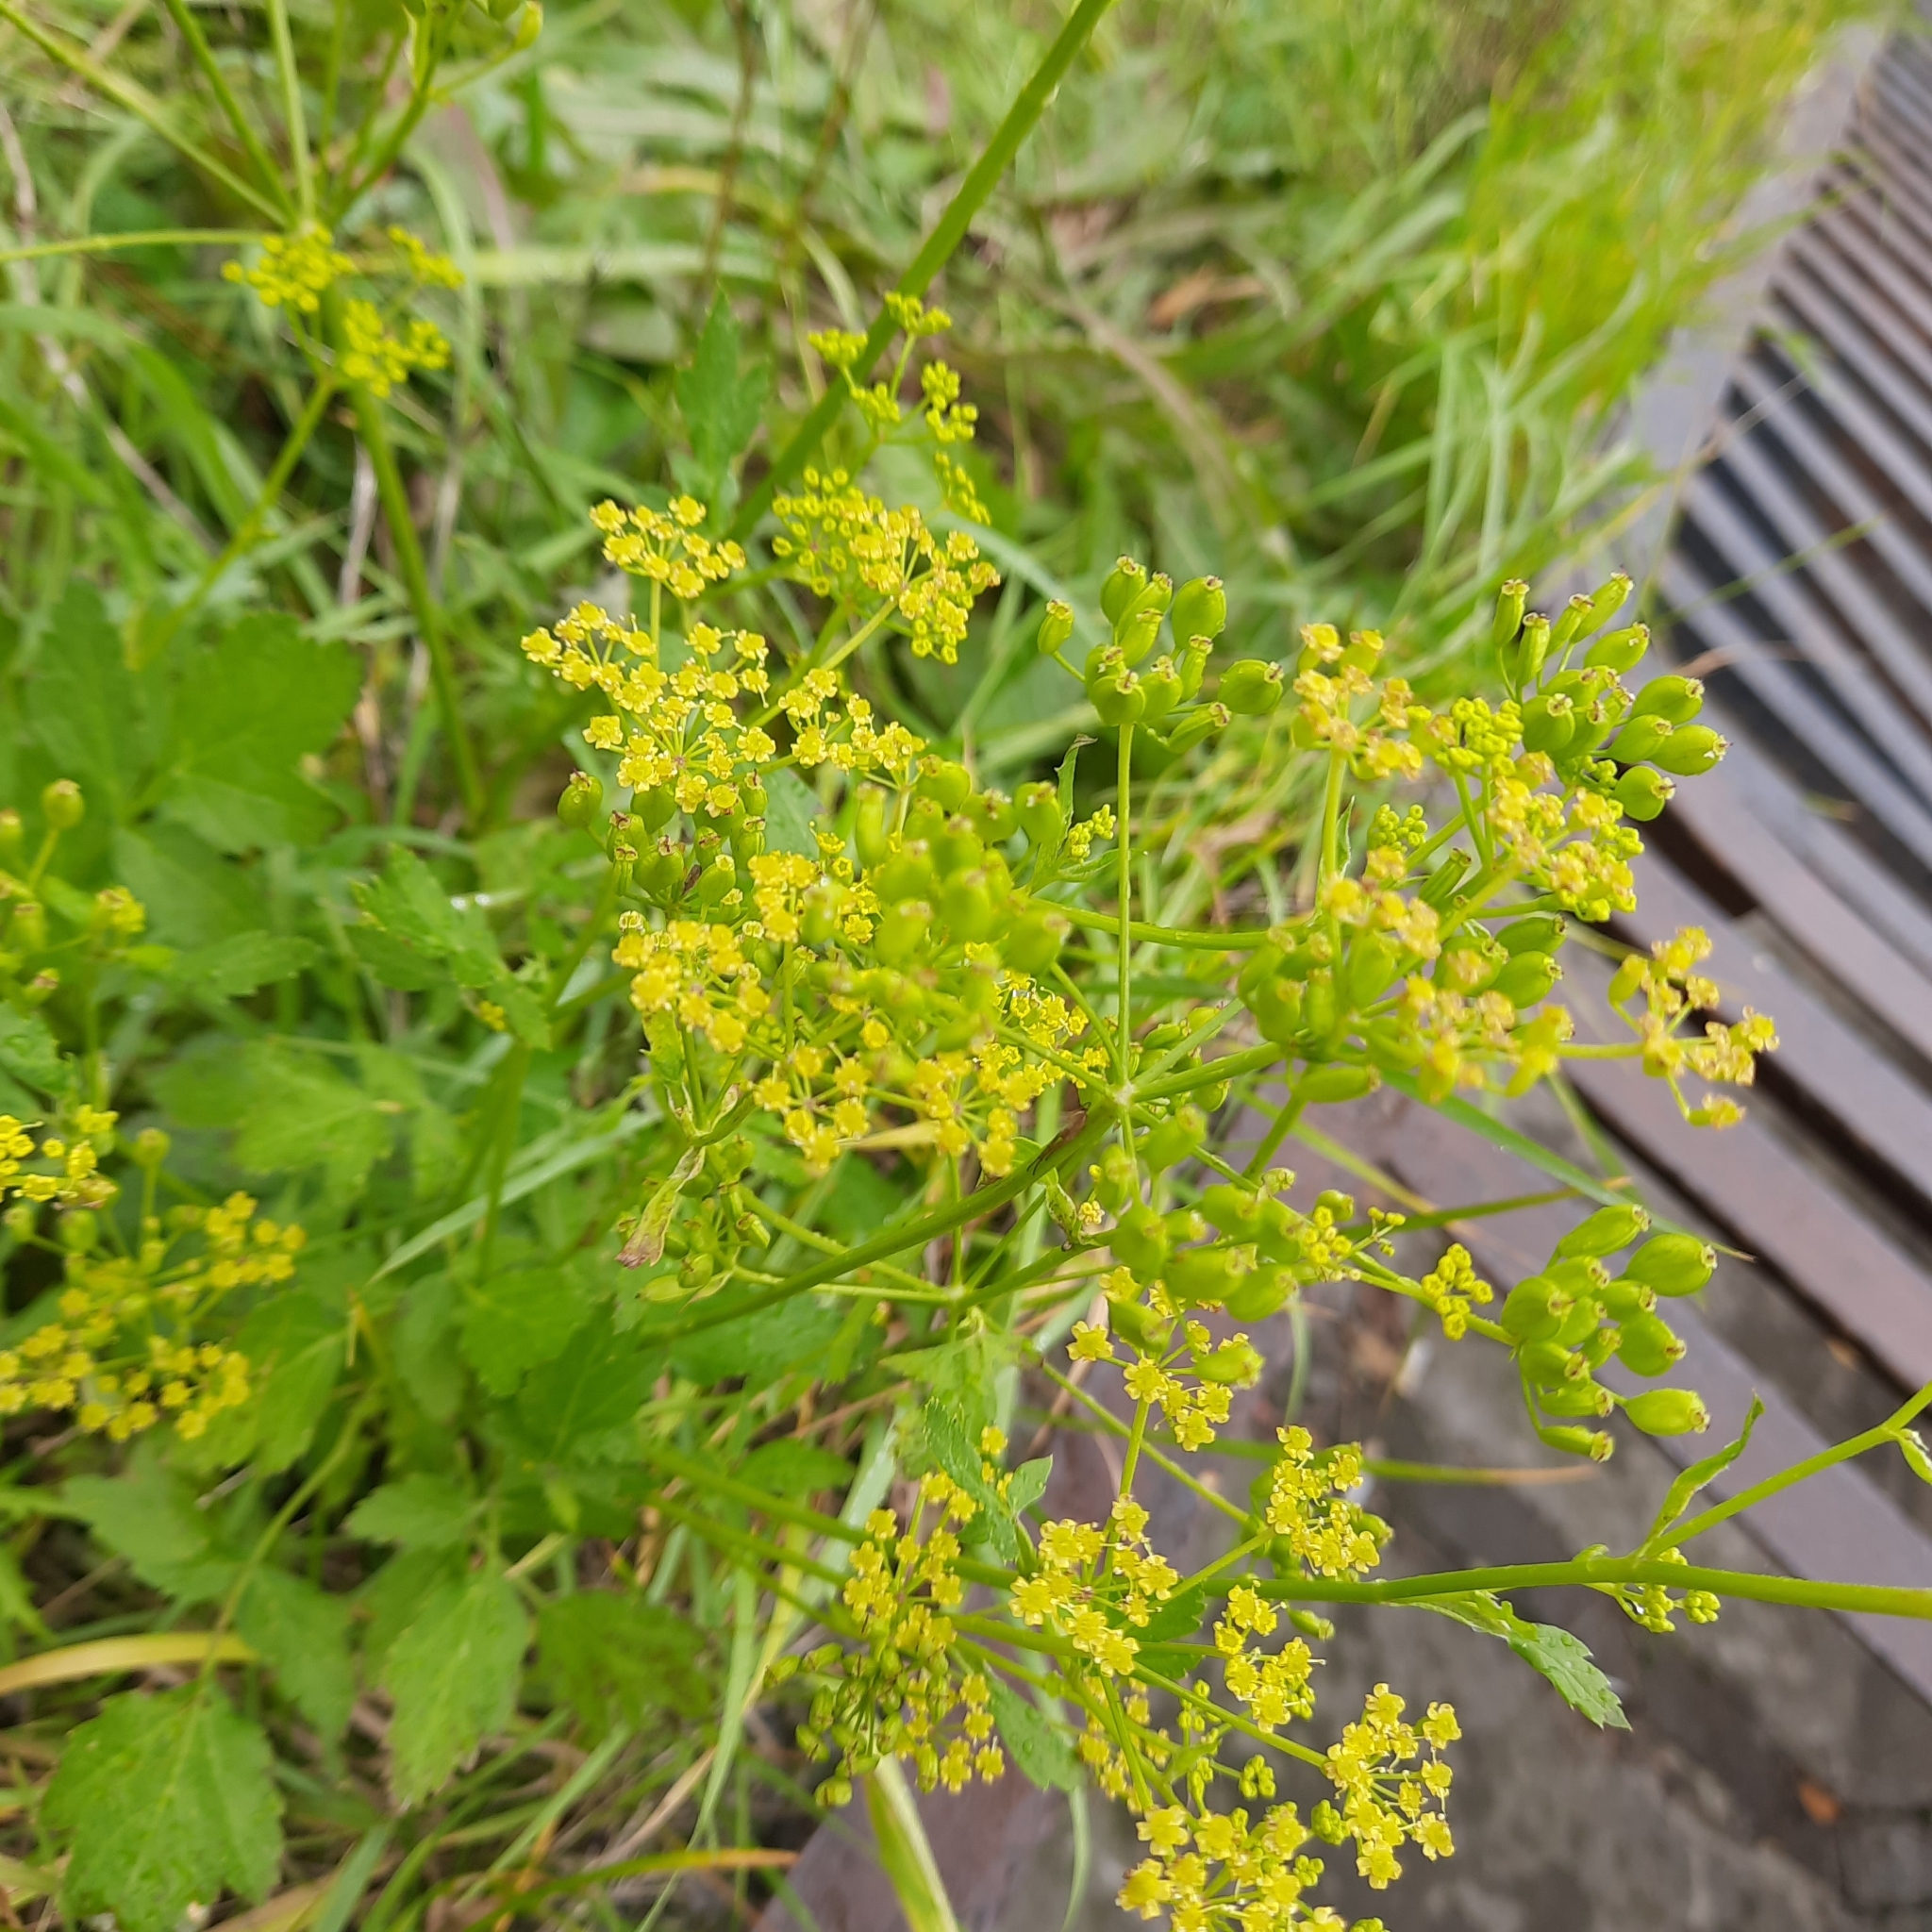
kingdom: Plantae
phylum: Tracheophyta
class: Magnoliopsida
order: Apiales
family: Apiaceae
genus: Pastinaca
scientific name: Pastinaca sativa
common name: Wild parsnip
